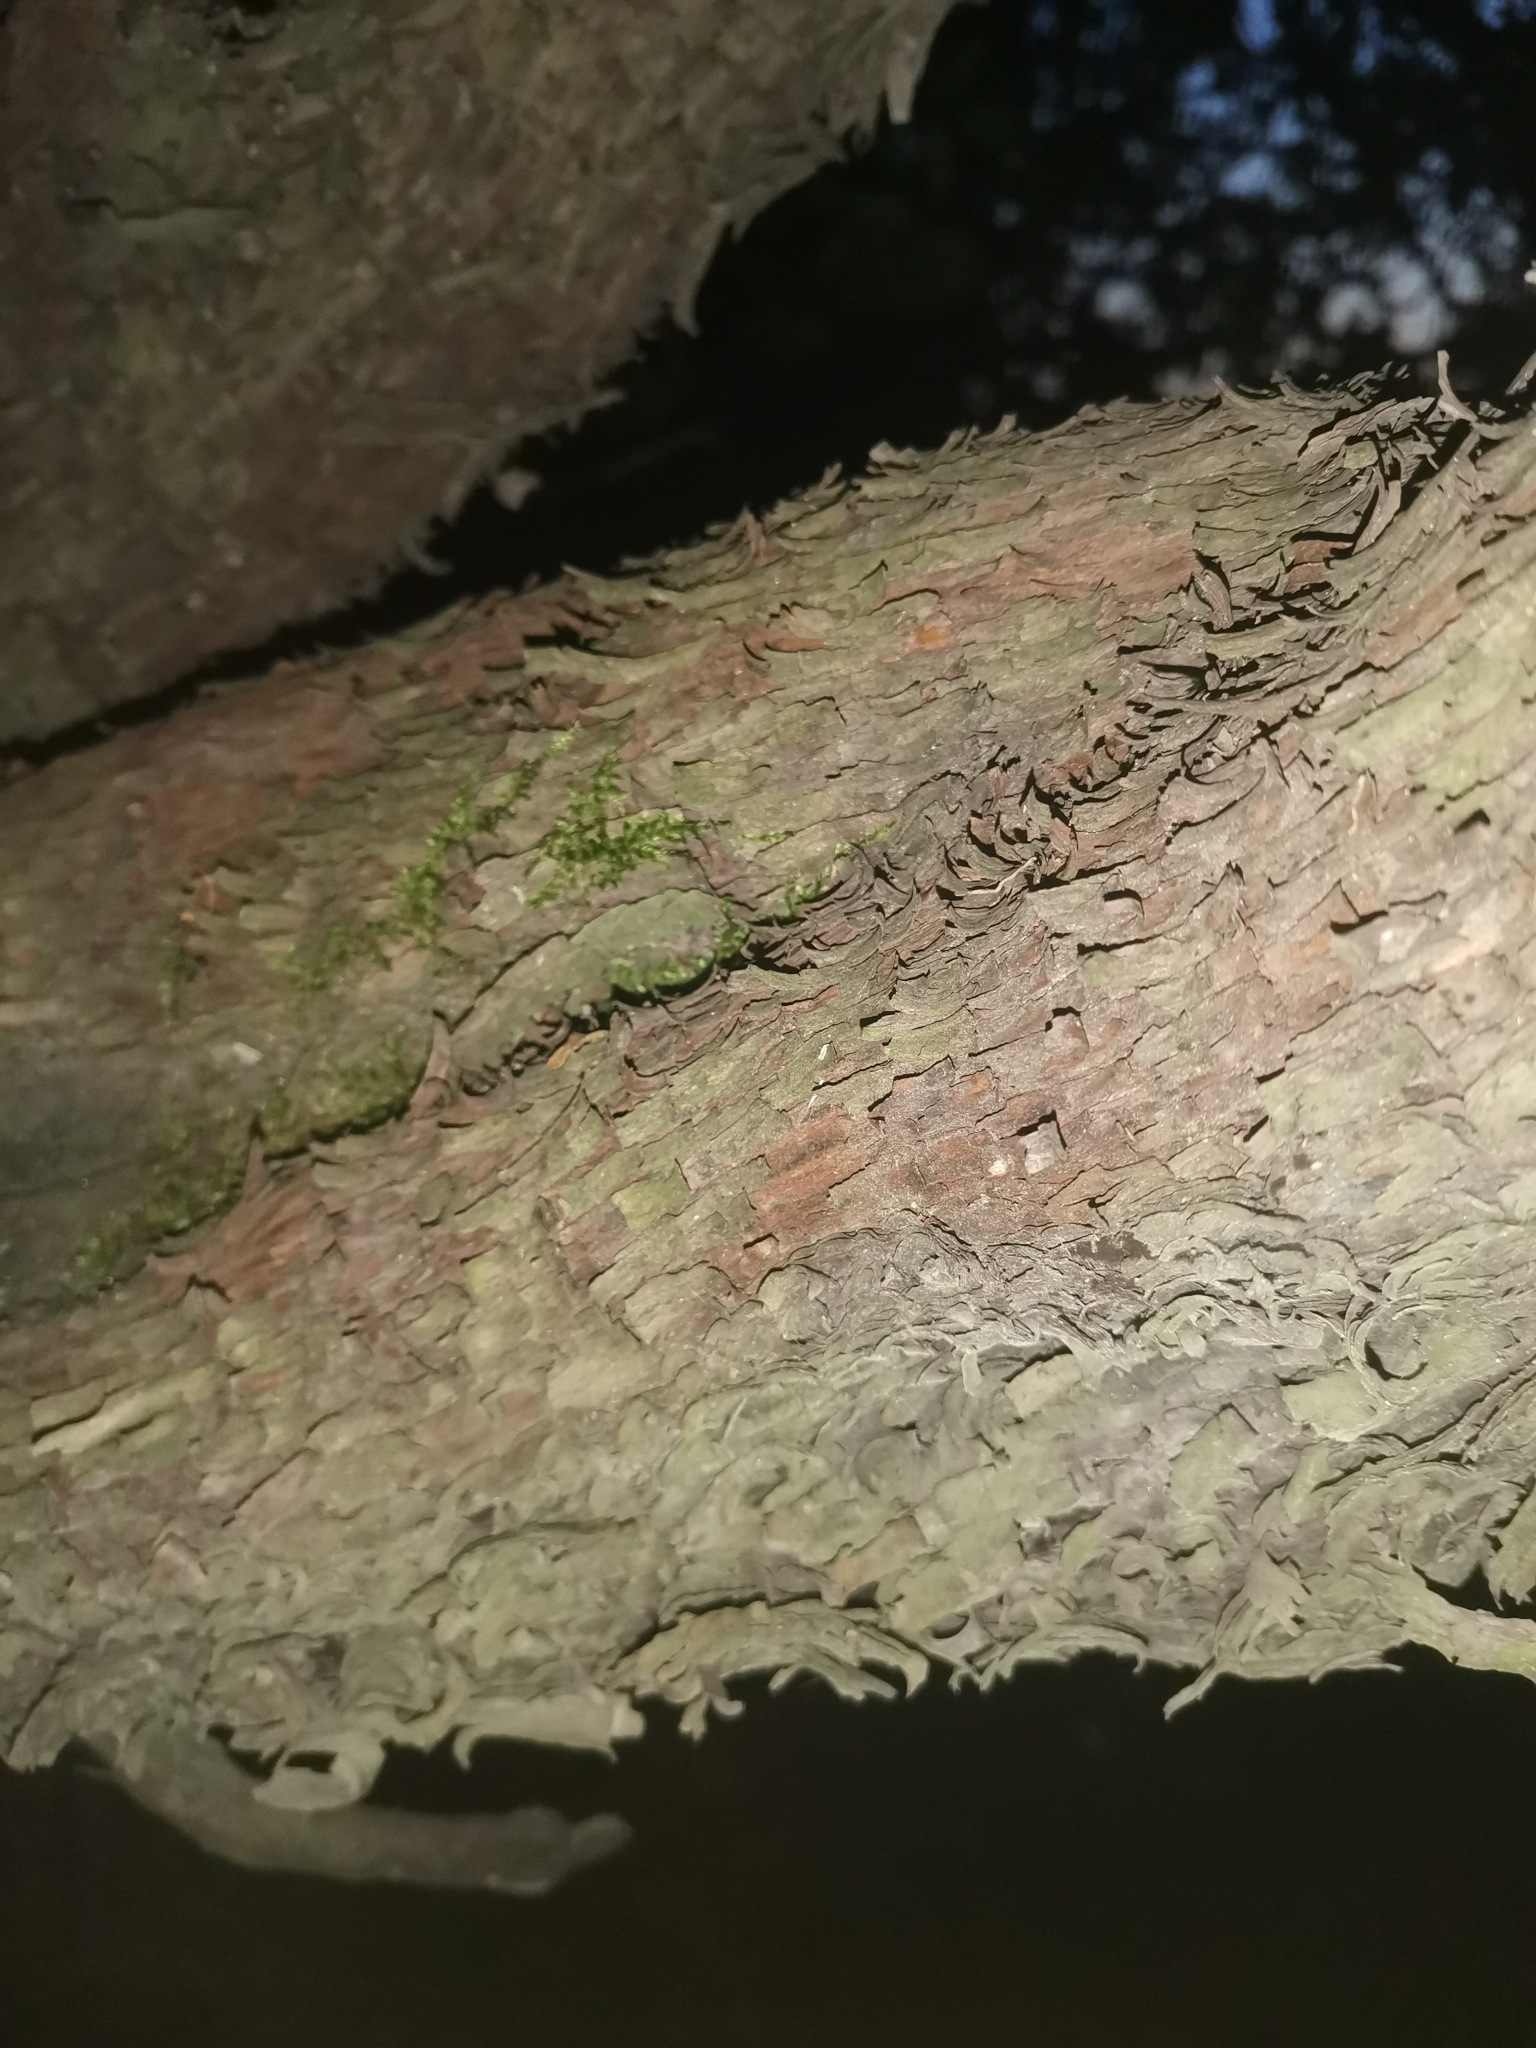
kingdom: Plantae
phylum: Tracheophyta
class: Magnoliopsida
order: Ericales
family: Ericaceae
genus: Arbutus
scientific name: Arbutus unedo
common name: Strawberry-tree
